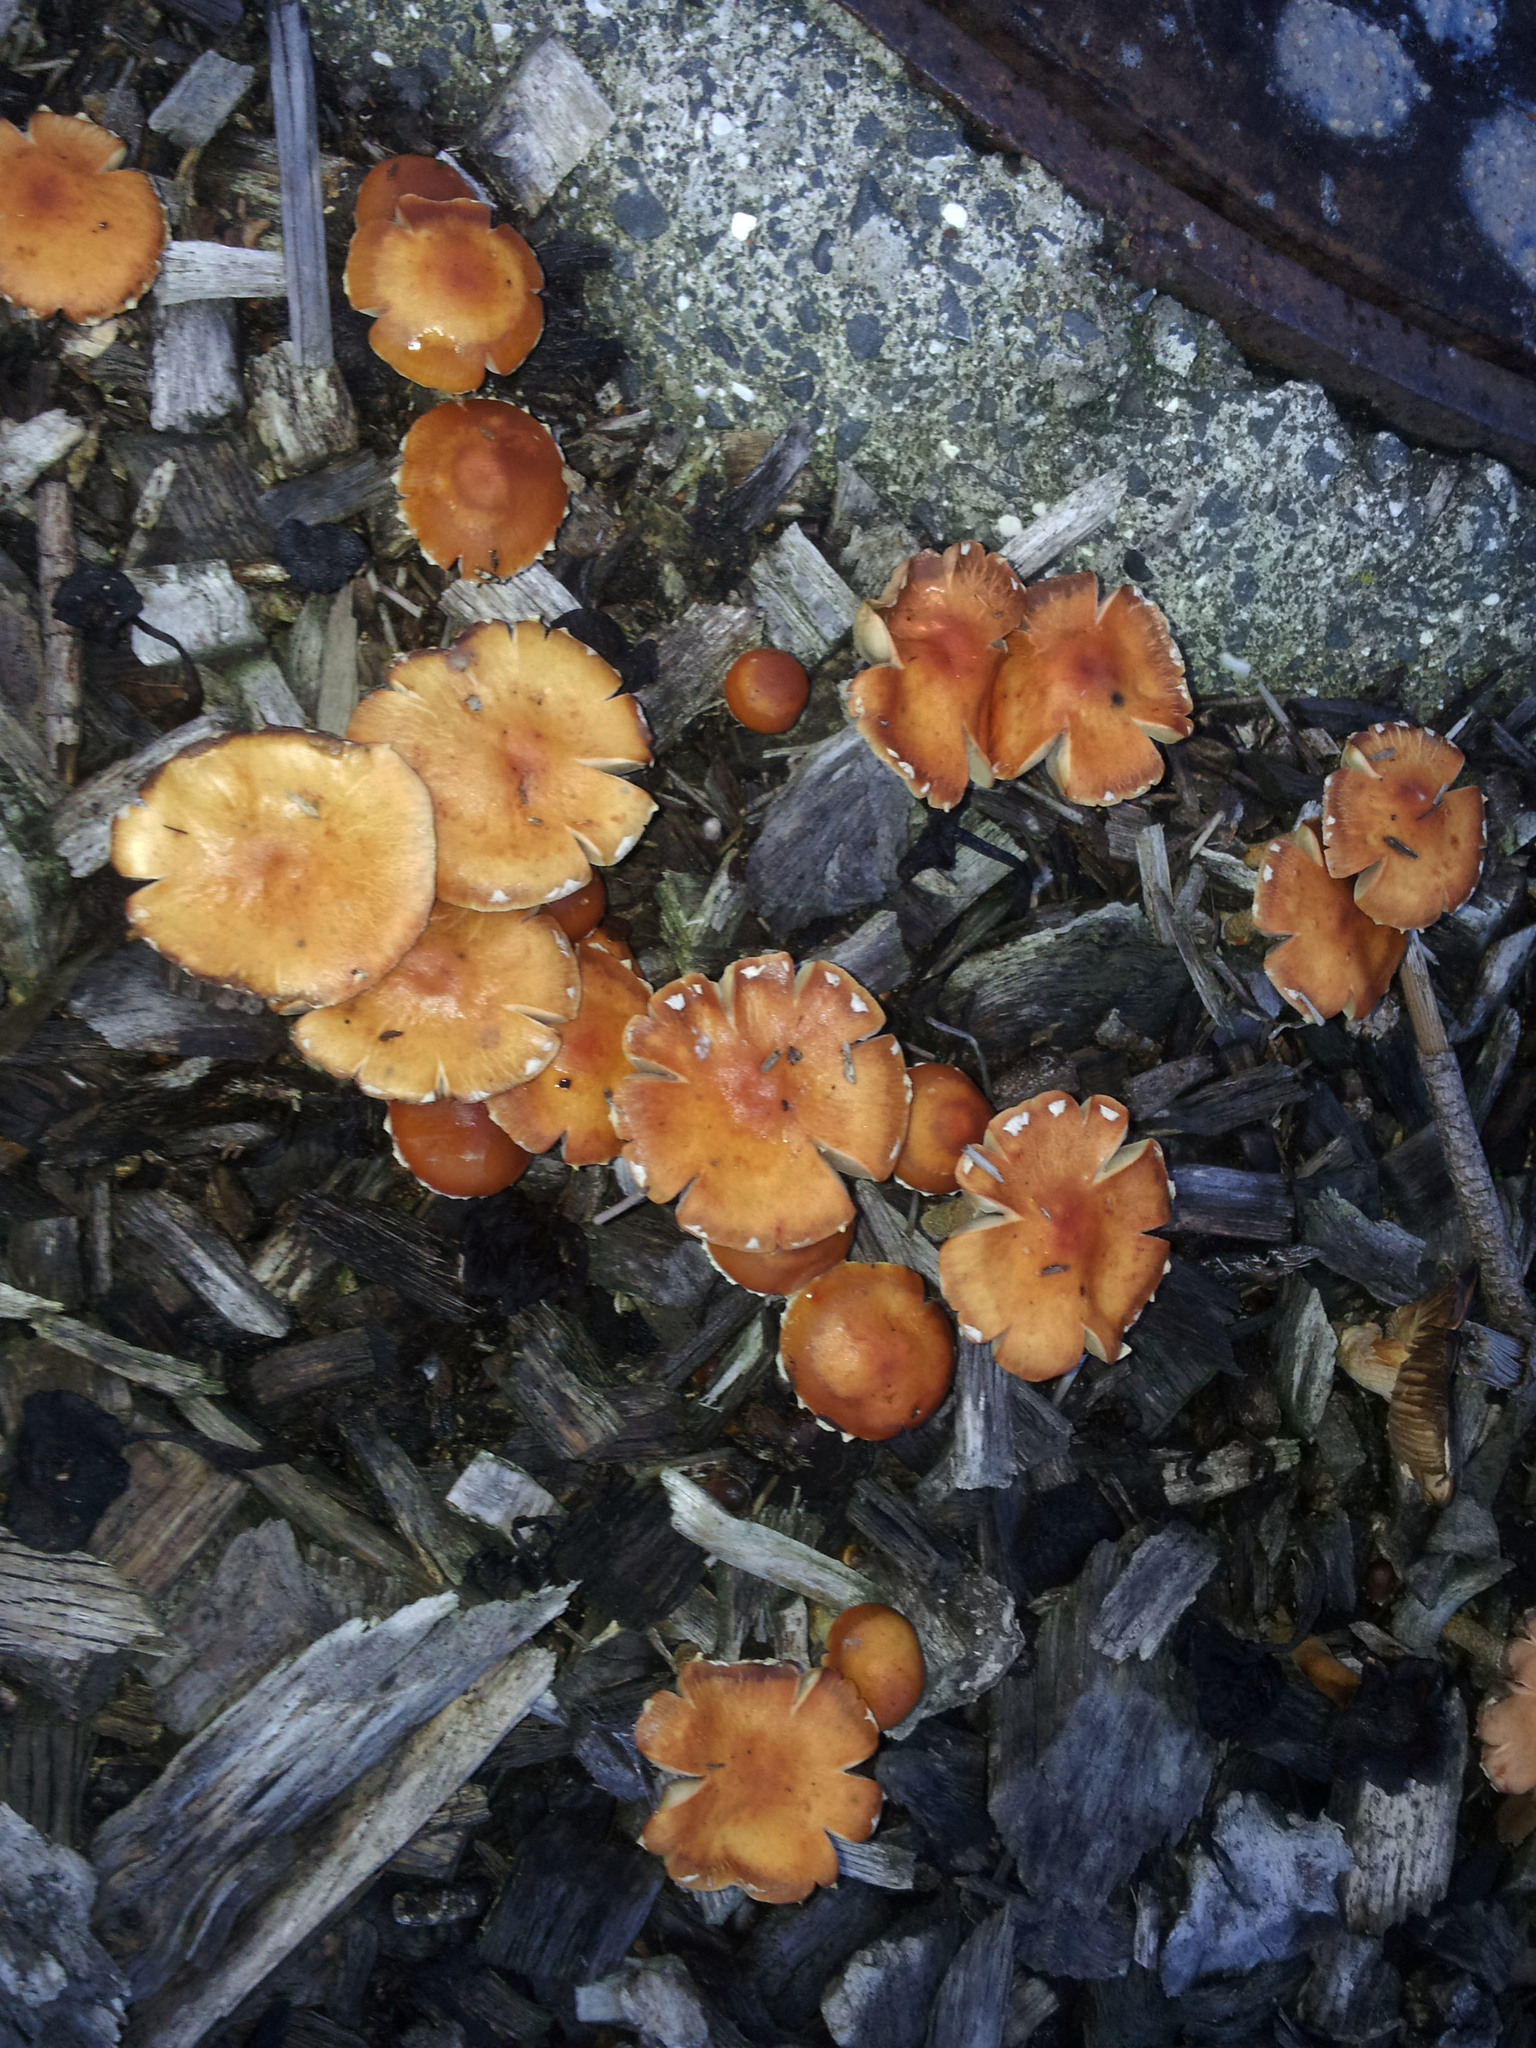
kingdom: Fungi
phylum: Basidiomycota
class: Agaricomycetes
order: Agaricales
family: Strophariaceae
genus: Leratiomyces
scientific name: Leratiomyces ceres
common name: Redlead roundhead
